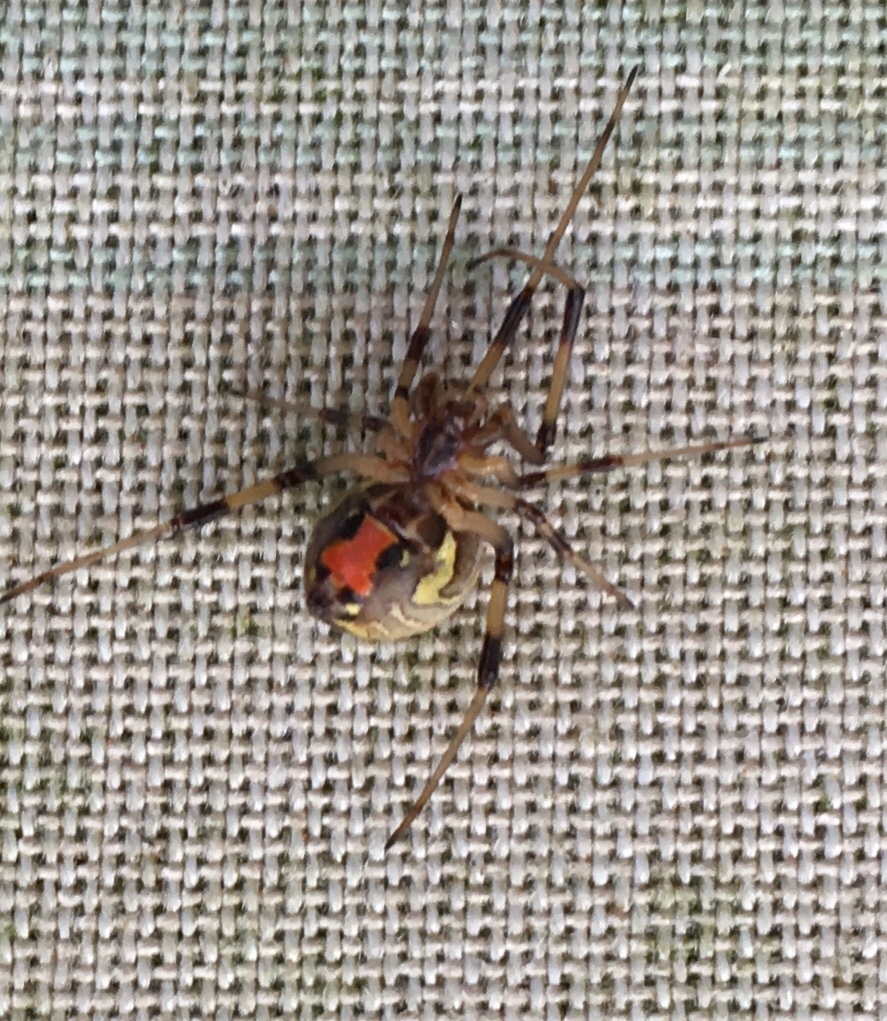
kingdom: Animalia
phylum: Arthropoda
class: Arachnida
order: Araneae
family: Theridiidae
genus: Latrodectus
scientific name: Latrodectus geometricus
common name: Brown widow spider
